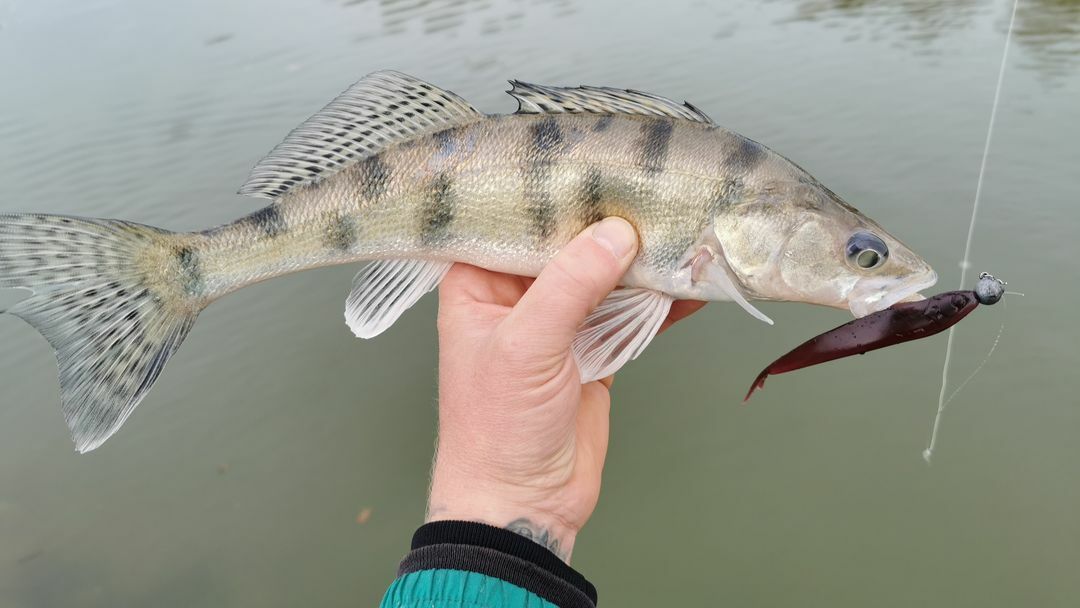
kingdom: Animalia
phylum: Chordata
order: Perciformes
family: Percidae
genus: Sander
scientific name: Sander volgensis
